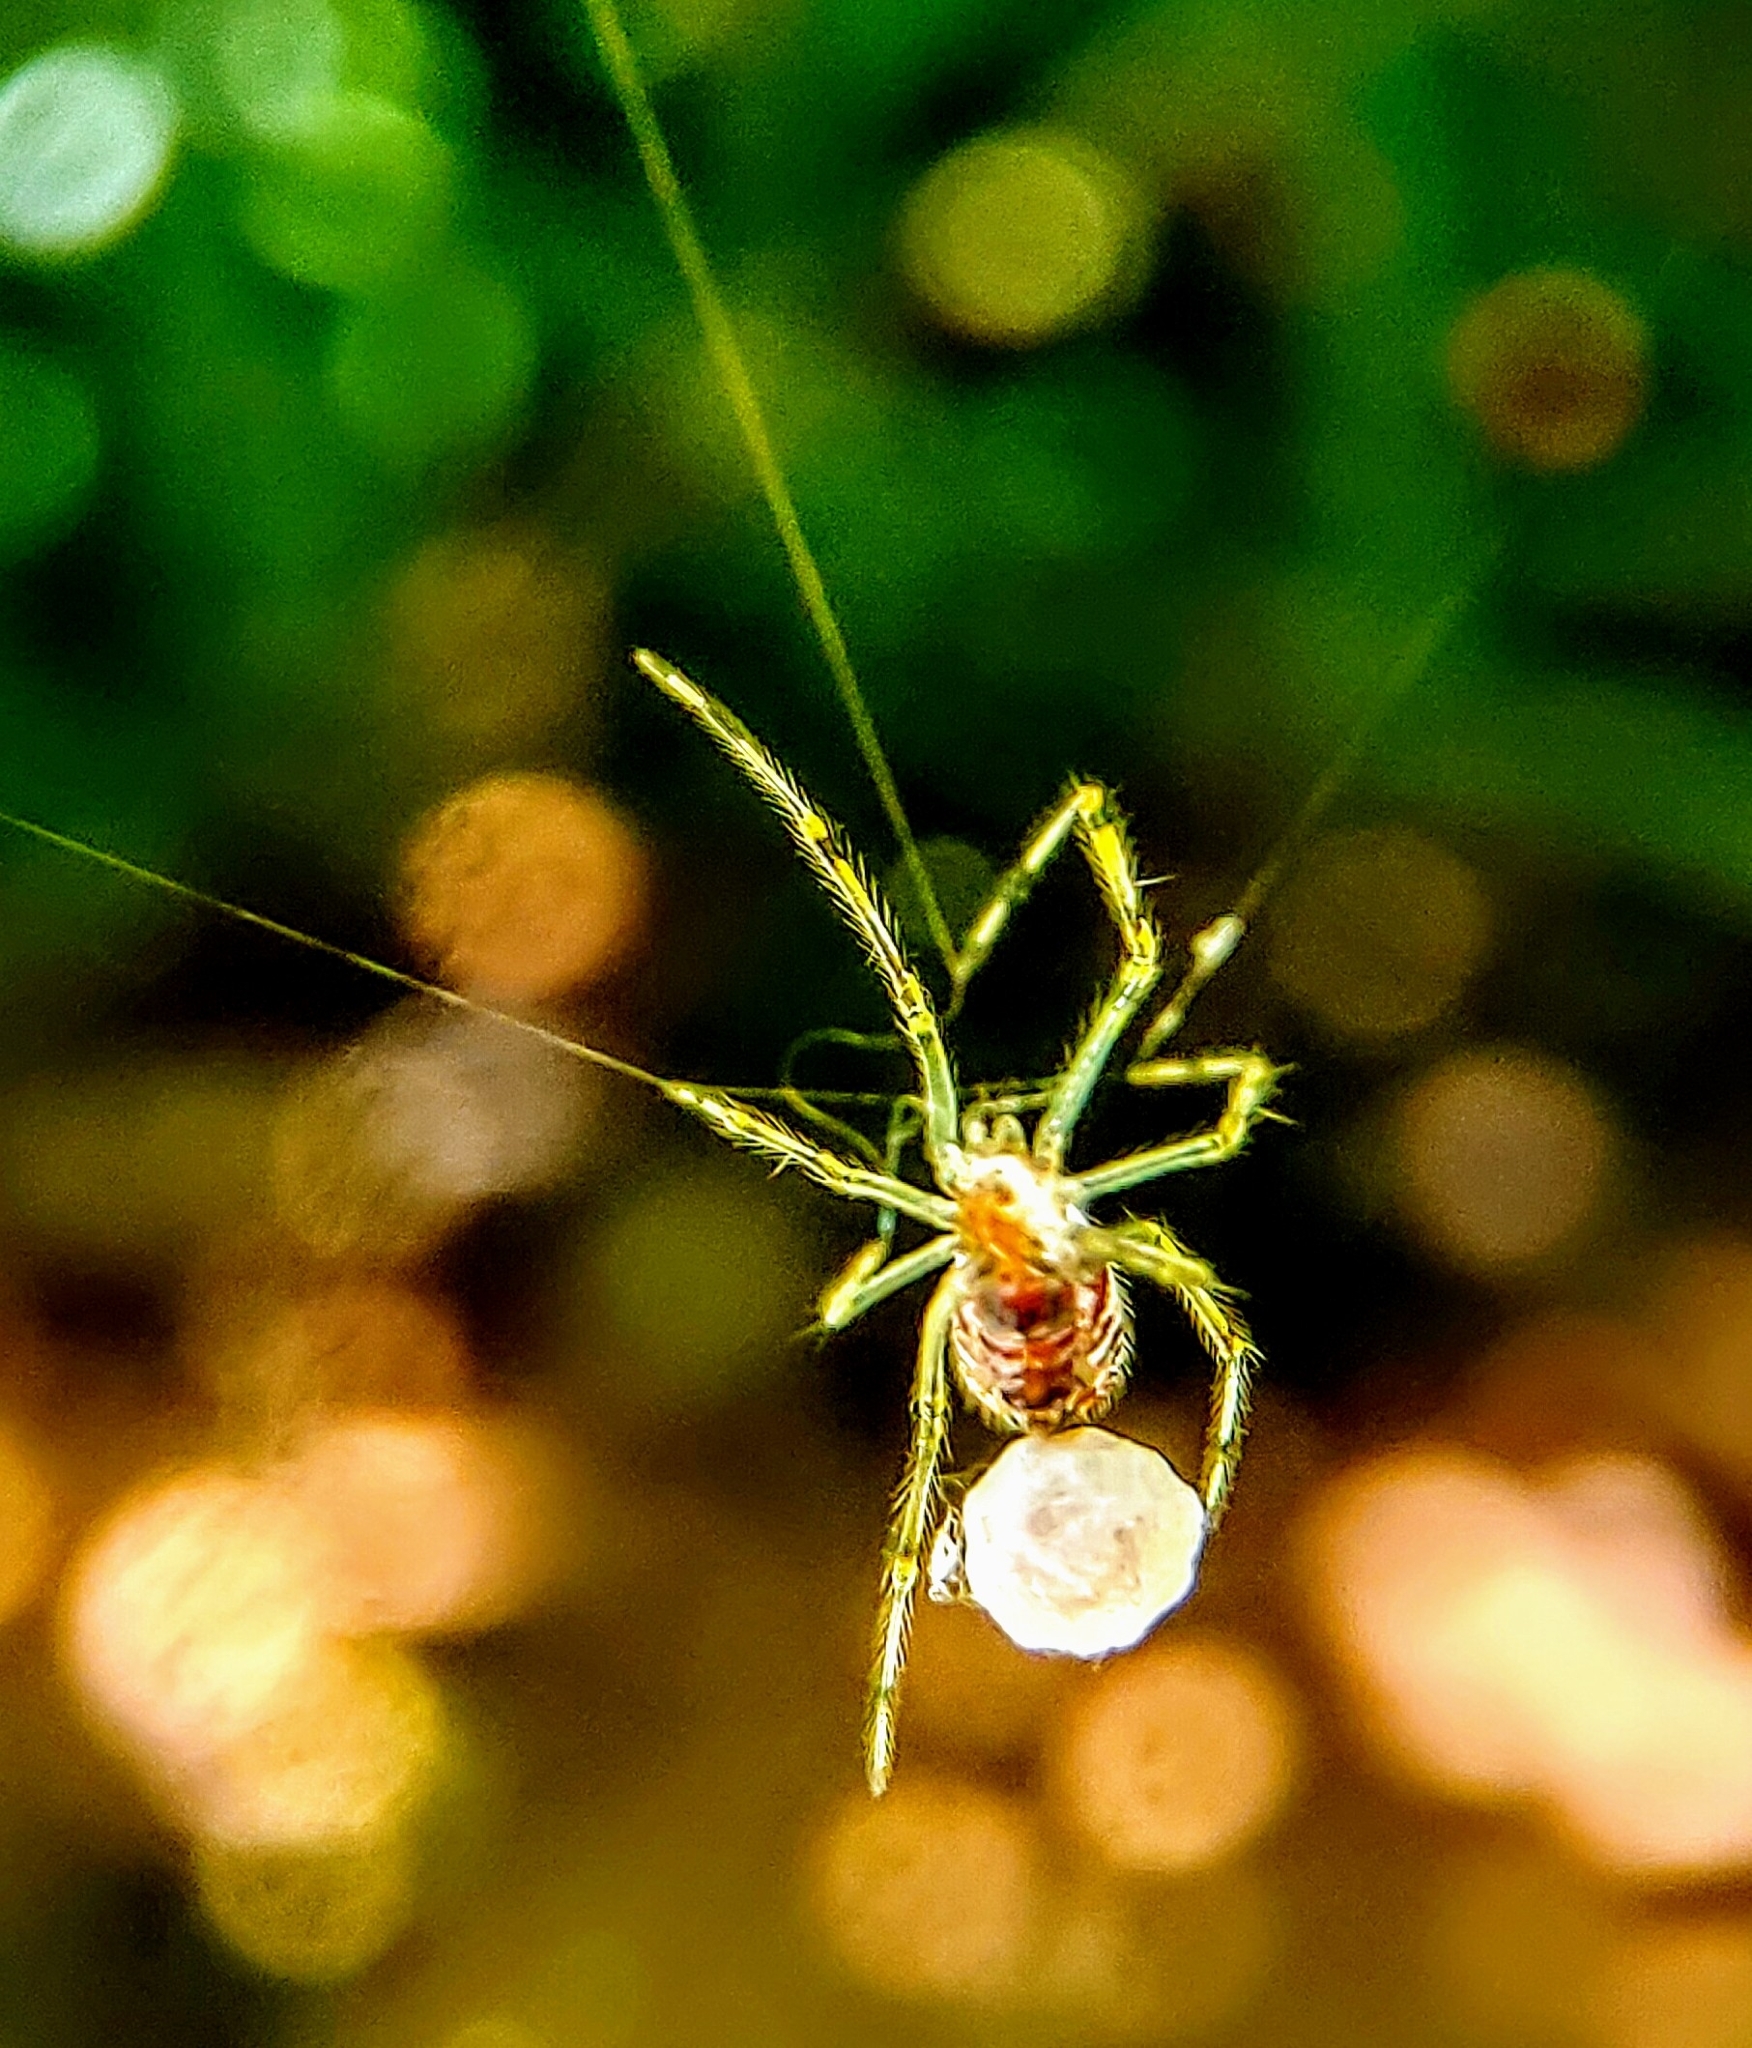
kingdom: Animalia
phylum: Arthropoda
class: Arachnida
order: Araneae
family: Theridiidae
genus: Theridion
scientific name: Theridion zonulatum
